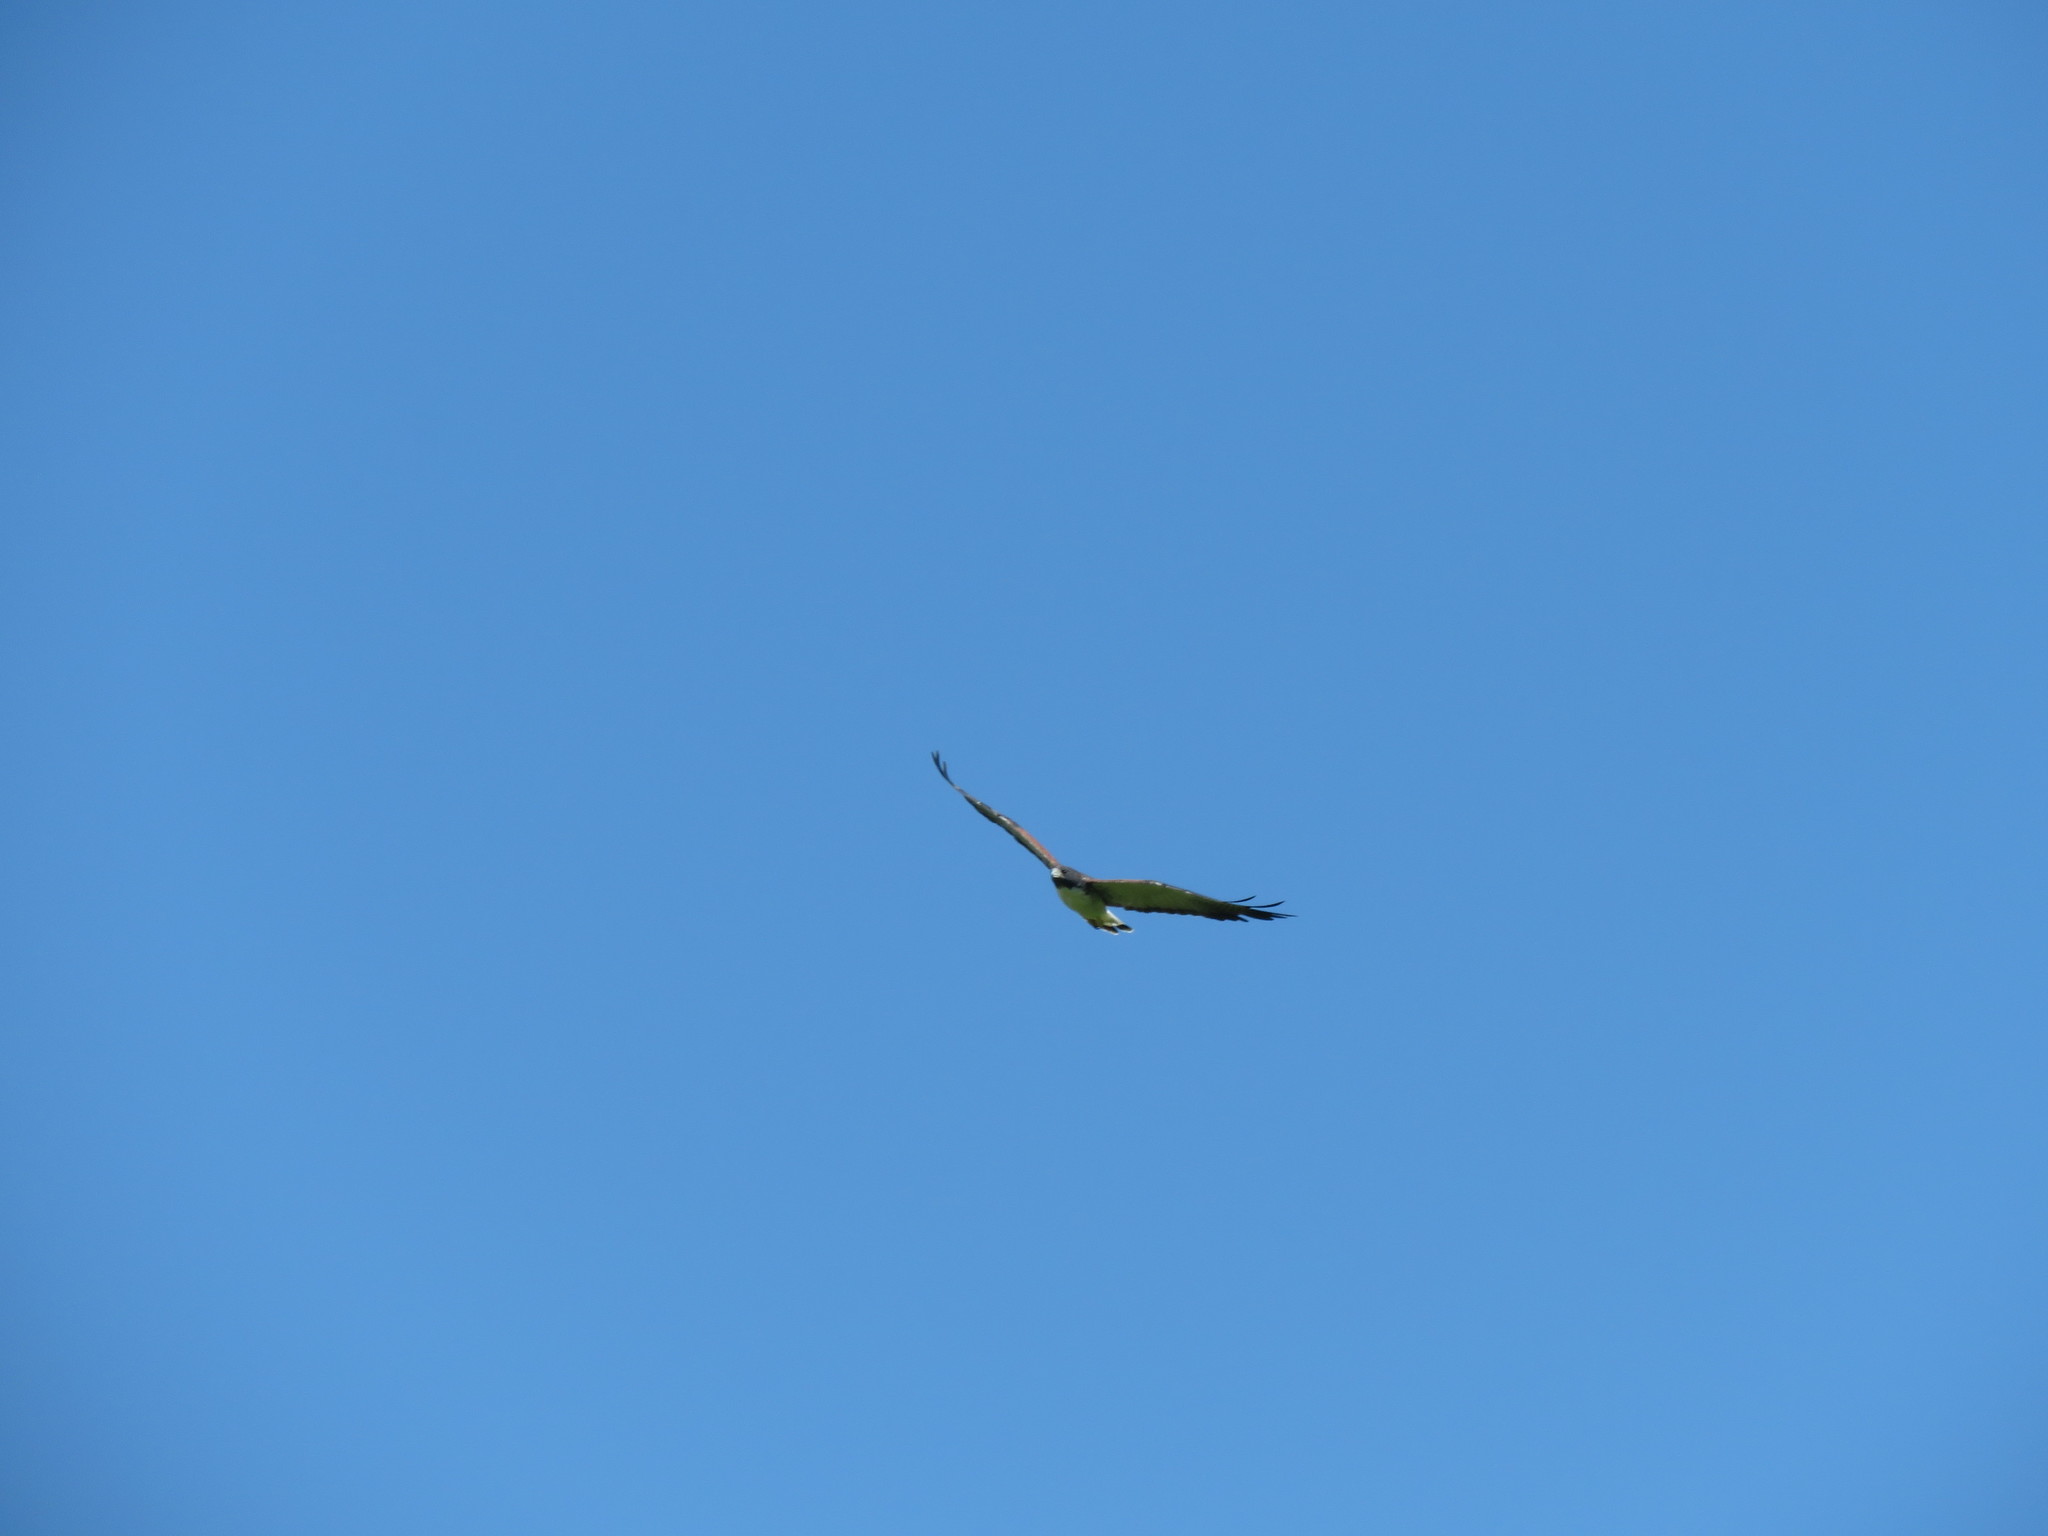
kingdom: Animalia
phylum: Chordata
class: Aves
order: Accipitriformes
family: Accipitridae
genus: Buteo
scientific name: Buteo albicaudatus
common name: White-tailed hawk
